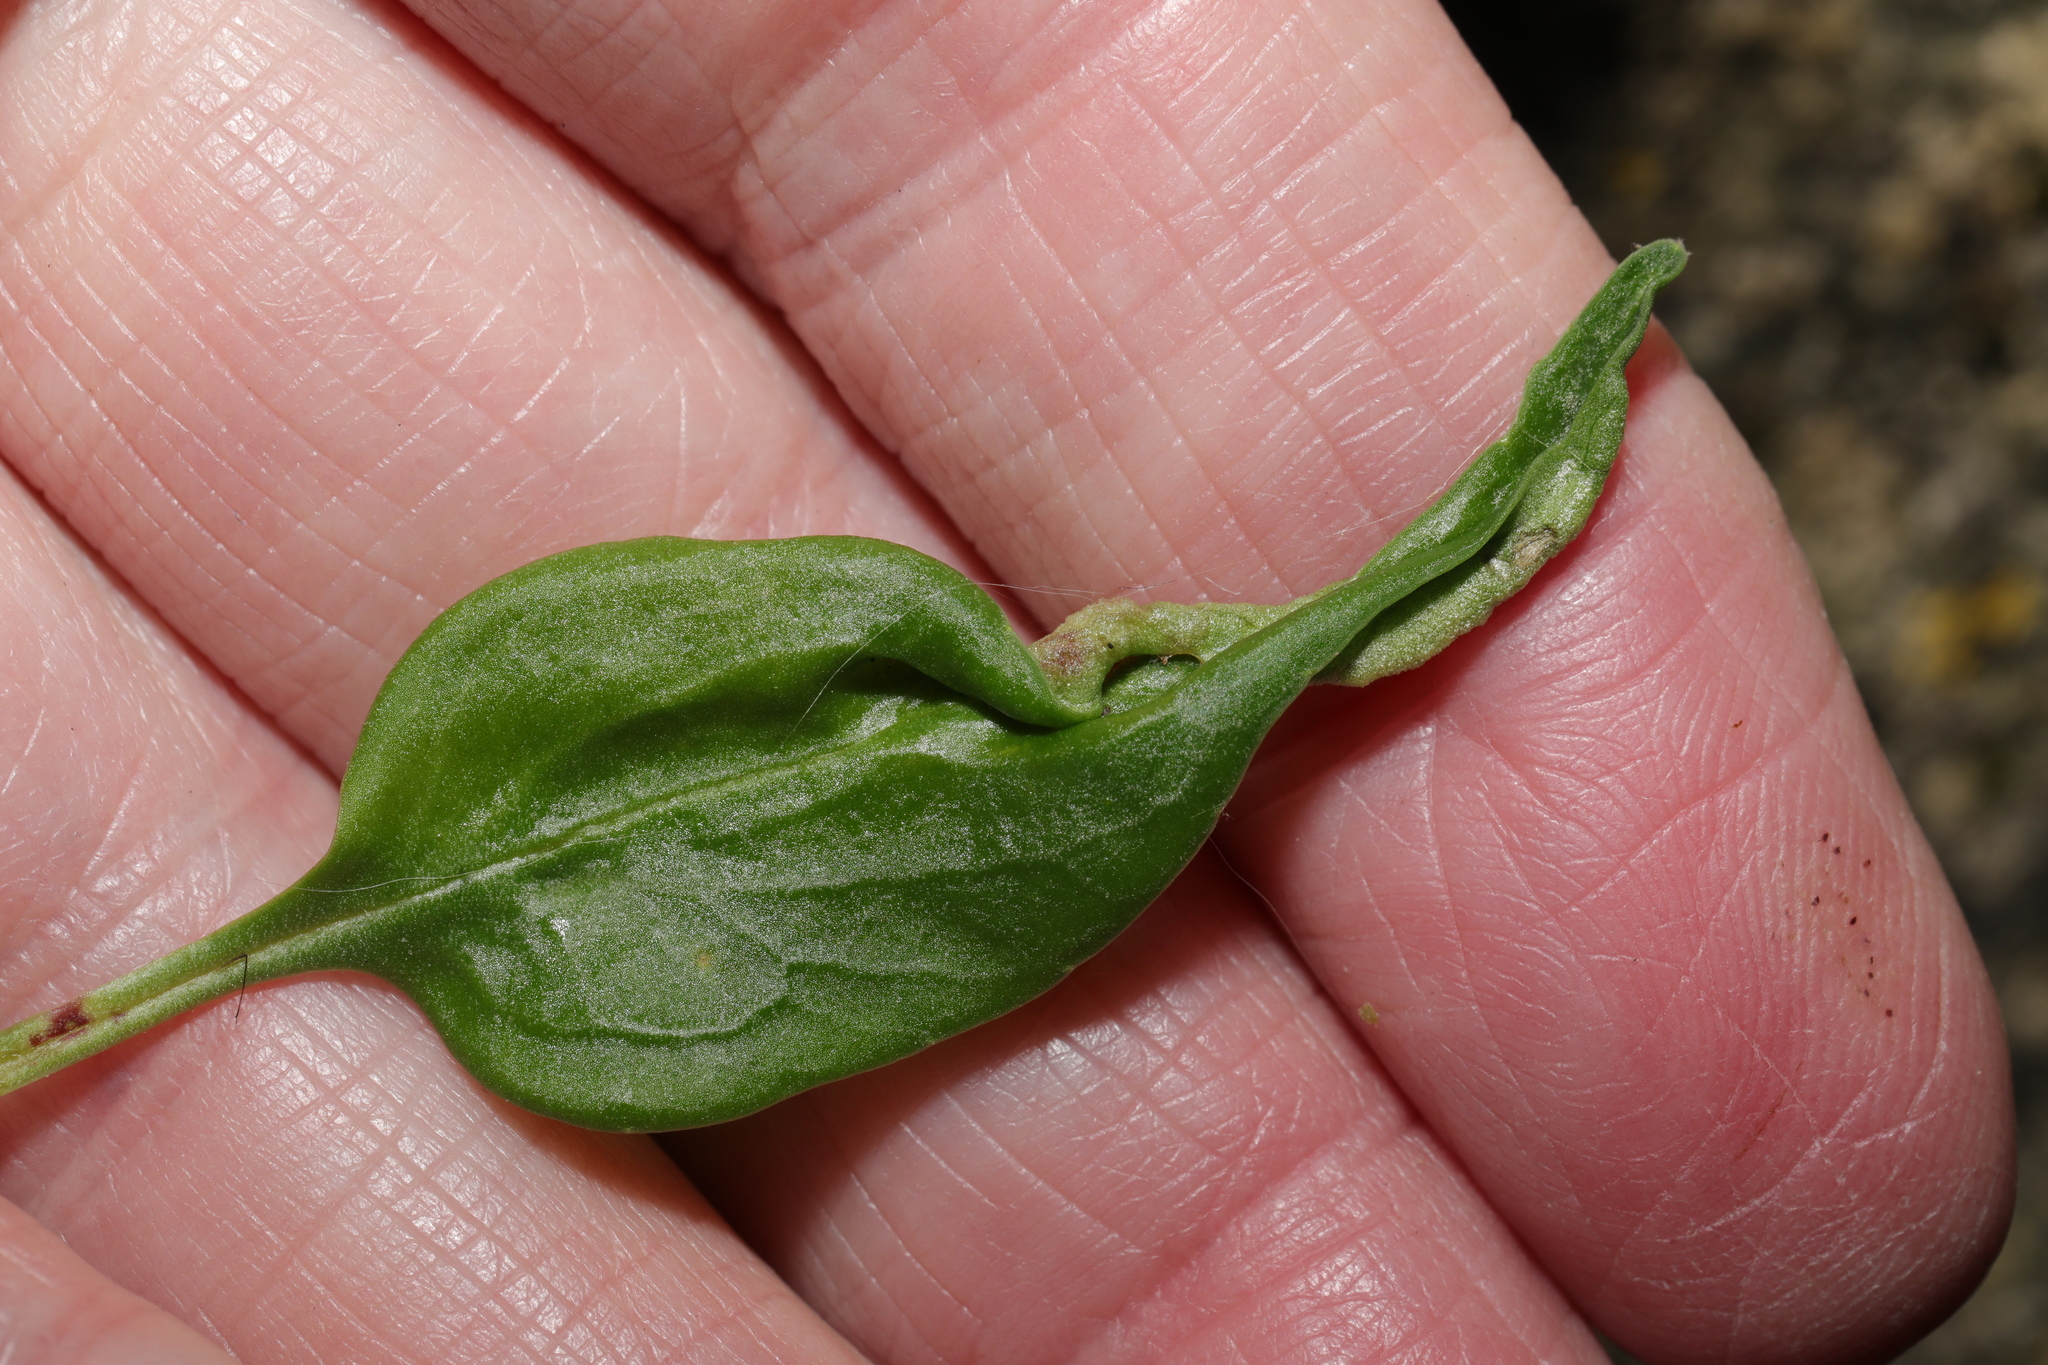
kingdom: Animalia
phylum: Arthropoda
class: Insecta
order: Hemiptera
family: Triozidae
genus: Trioza
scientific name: Trioza centranthi
